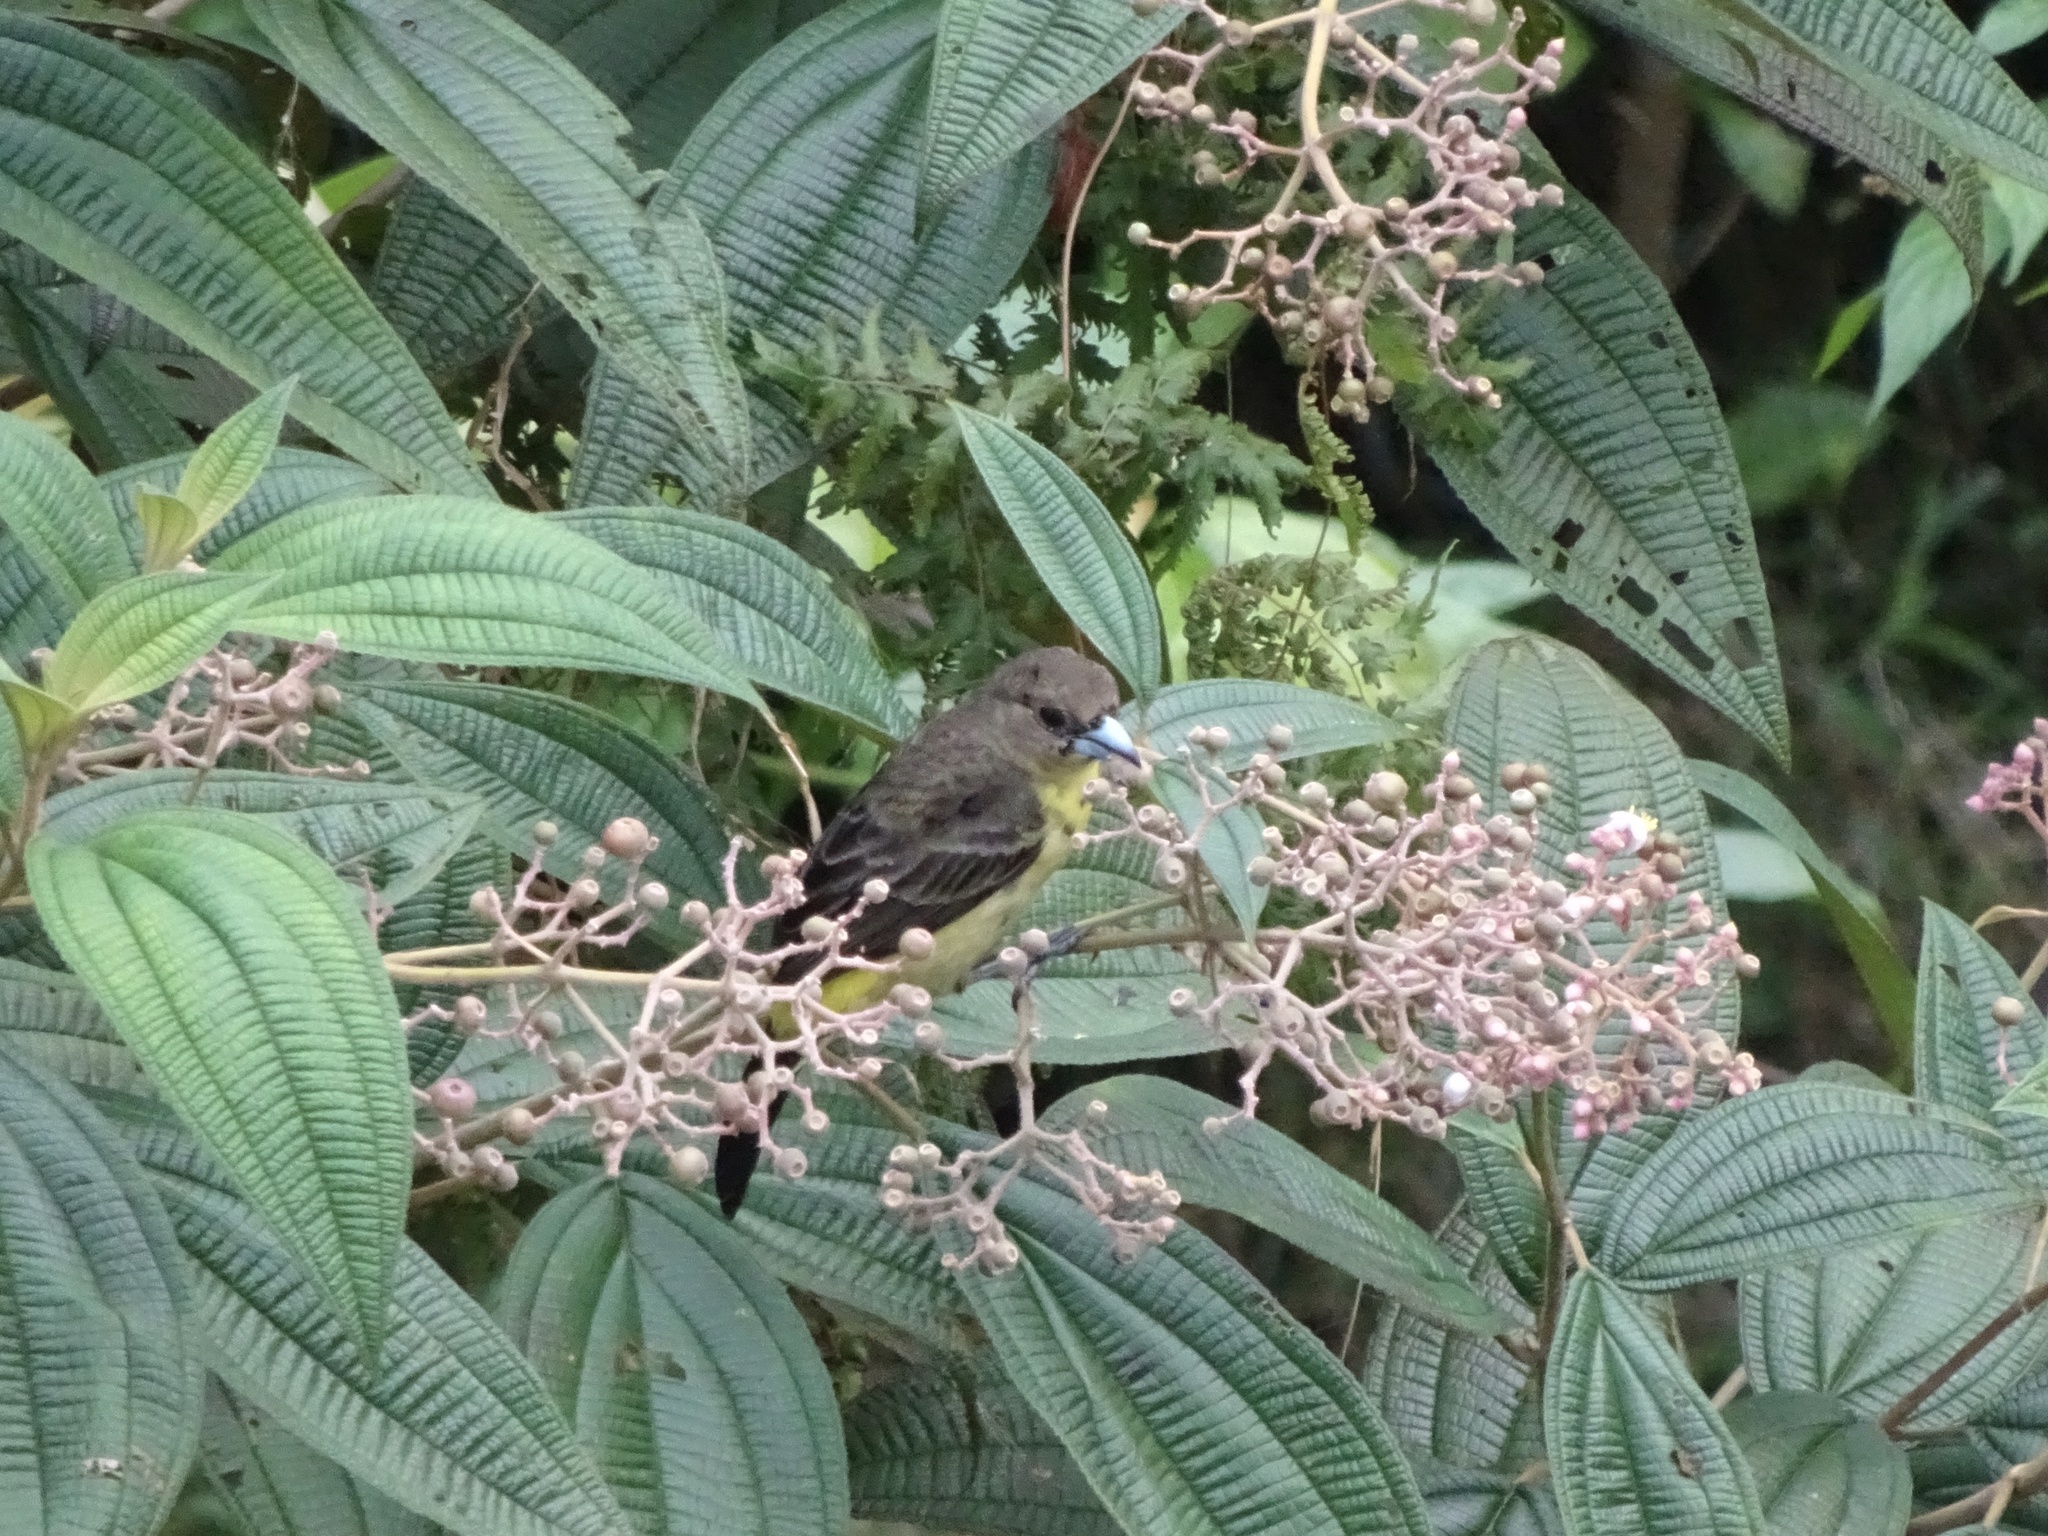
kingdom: Animalia
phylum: Chordata
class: Aves
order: Passeriformes
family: Thraupidae
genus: Ramphocelus
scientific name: Ramphocelus icteronotus
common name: Lemon-rumped tanager
